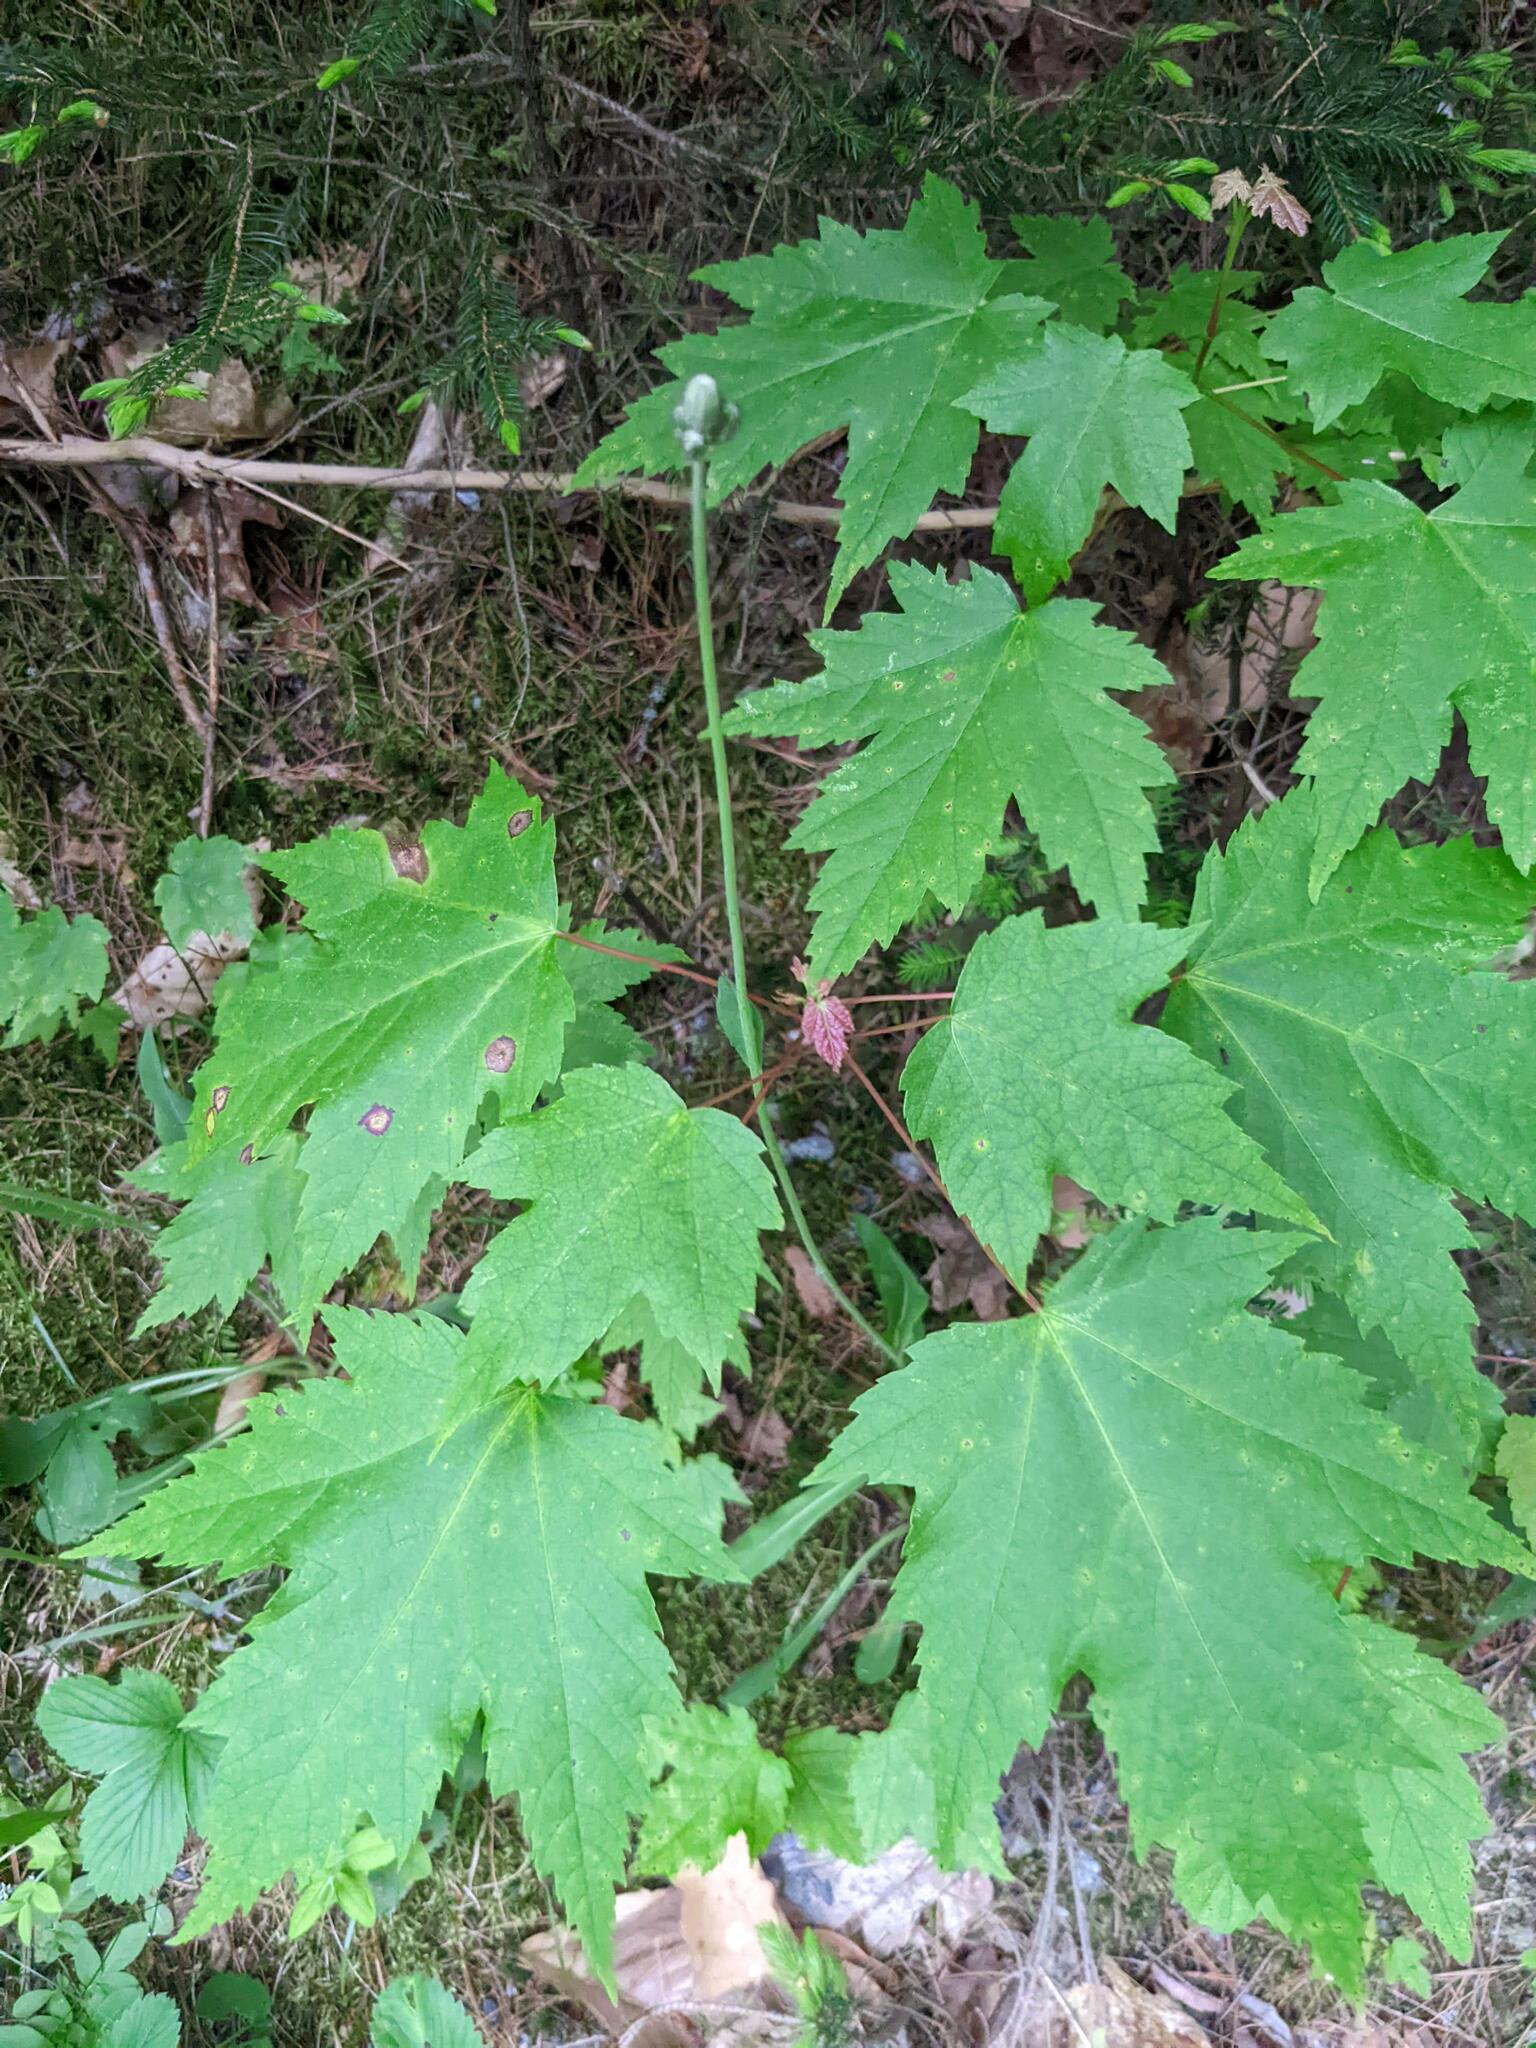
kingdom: Plantae
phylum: Tracheophyta
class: Magnoliopsida
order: Sapindales
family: Sapindaceae
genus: Acer
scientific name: Acer rubrum
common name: Red maple
